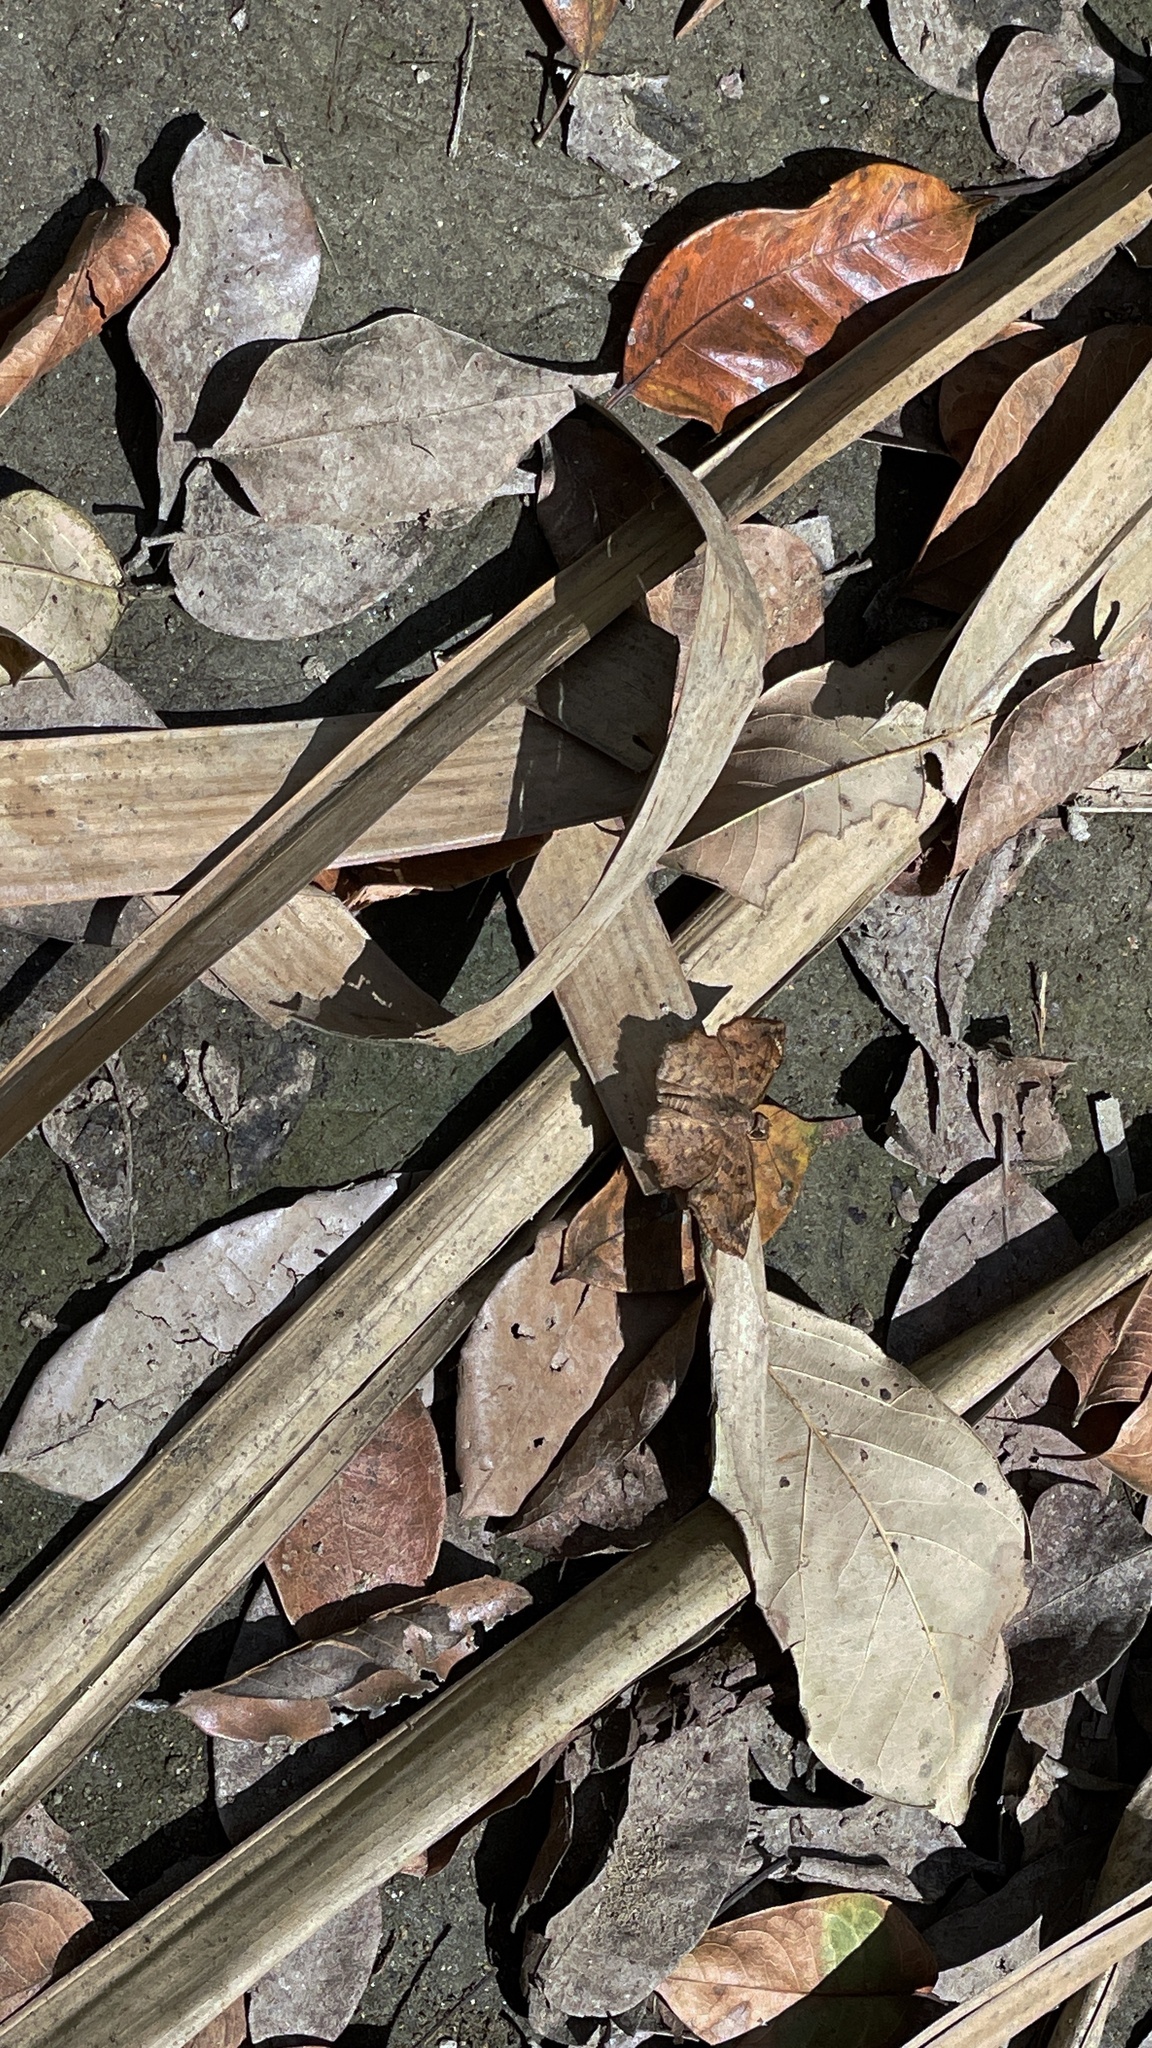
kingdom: Animalia
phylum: Arthropoda
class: Insecta
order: Lepidoptera
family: Hesperiidae
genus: Antigonus
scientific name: Antigonus erosus
